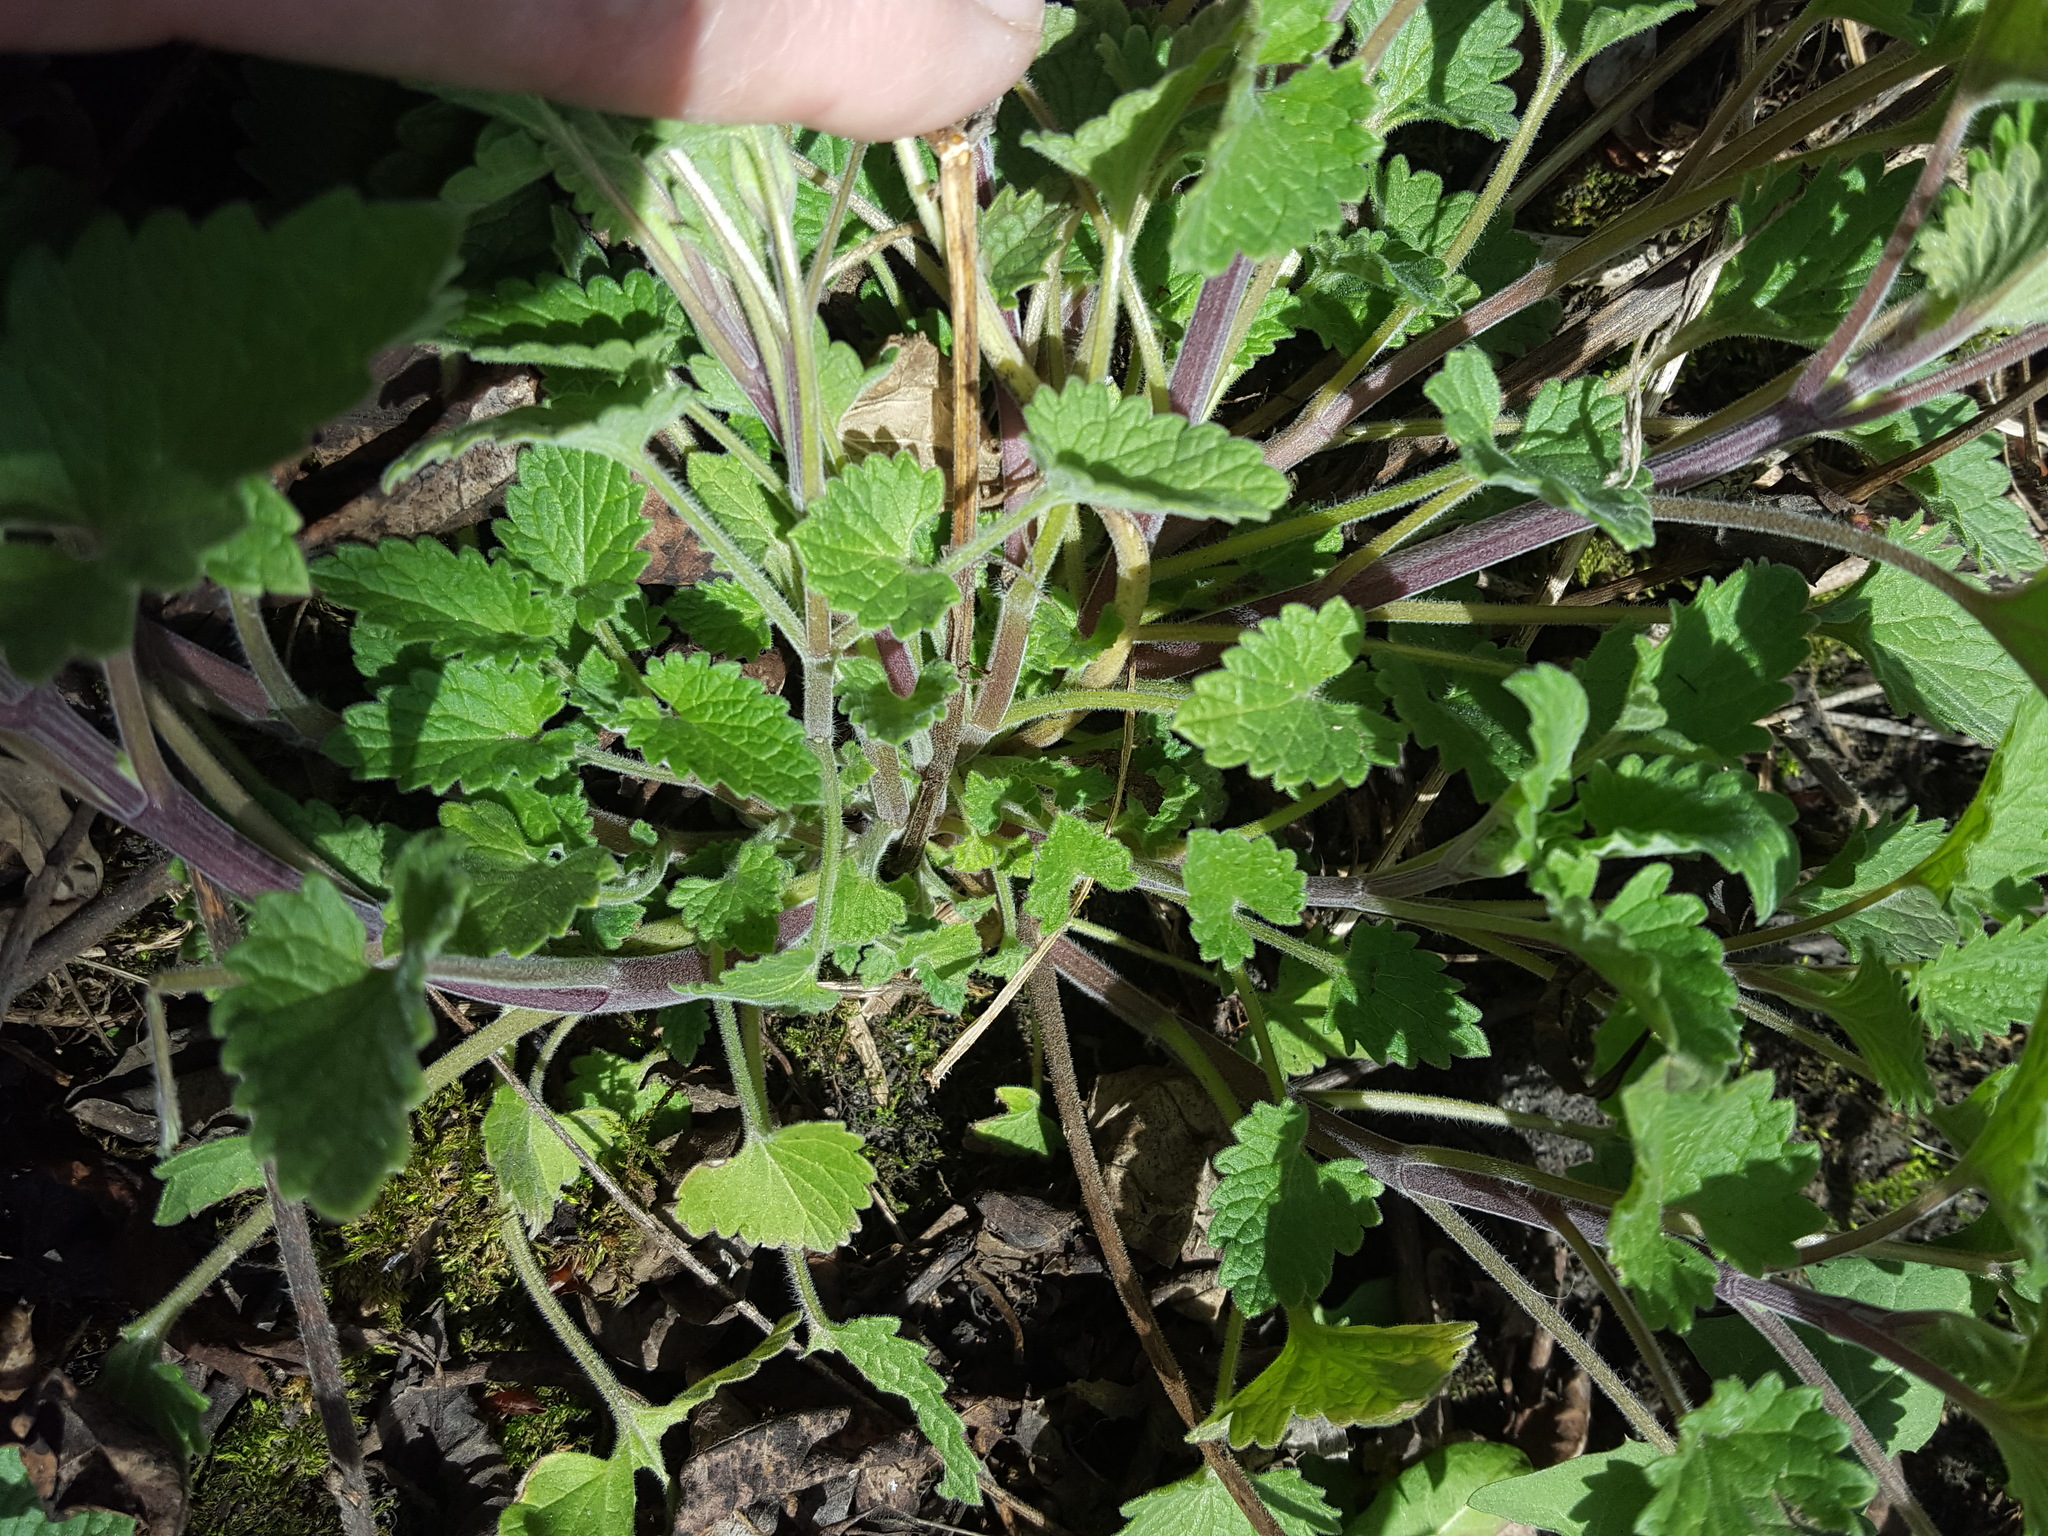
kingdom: Plantae
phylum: Tracheophyta
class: Magnoliopsida
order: Lamiales
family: Lamiaceae
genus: Nepeta
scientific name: Nepeta cataria
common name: Catnip
